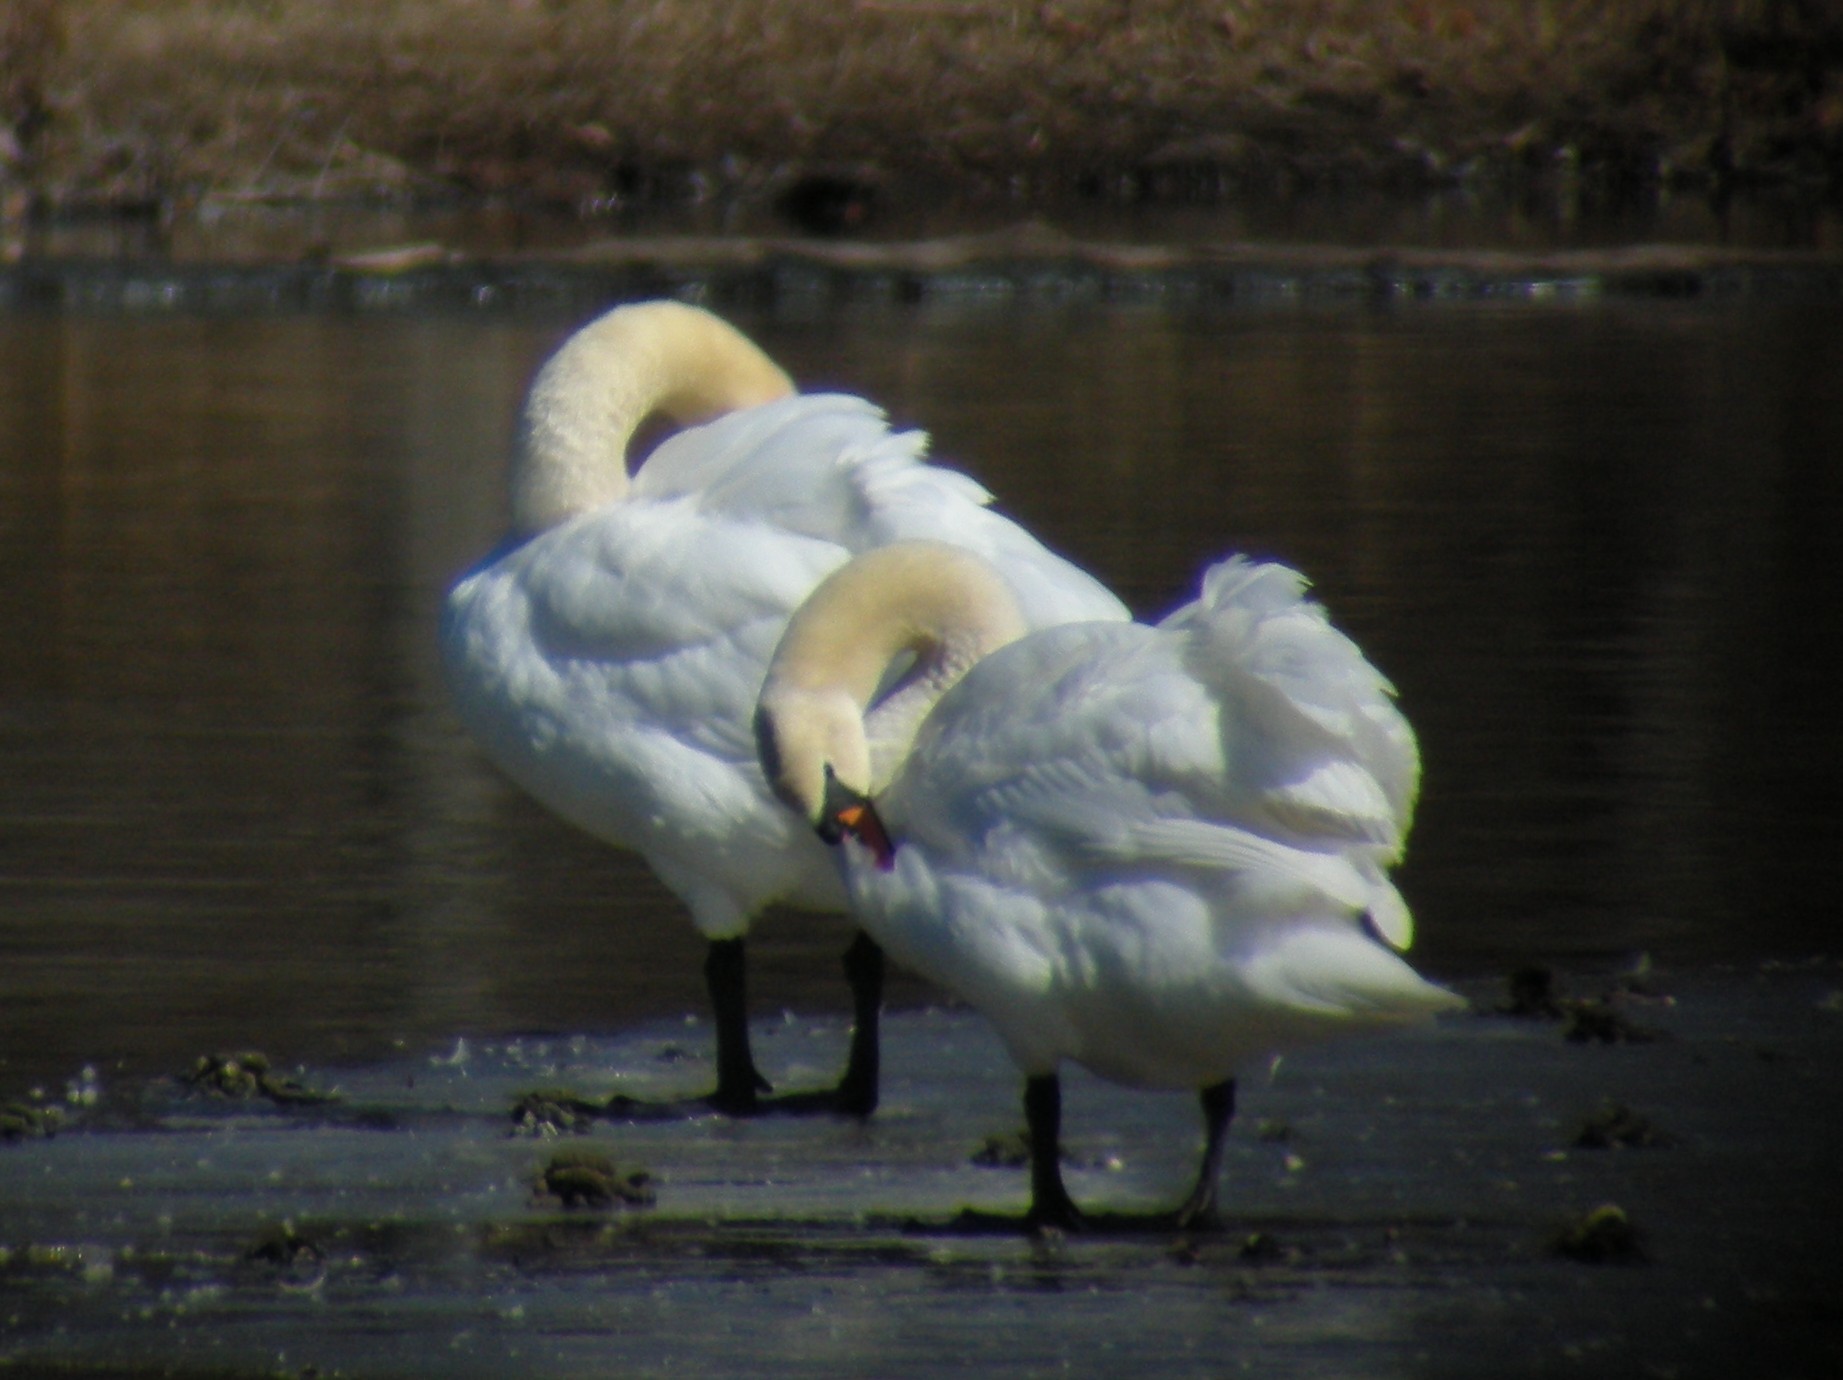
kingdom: Animalia
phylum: Chordata
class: Aves
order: Anseriformes
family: Anatidae
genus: Cygnus
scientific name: Cygnus olor
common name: Mute swan
